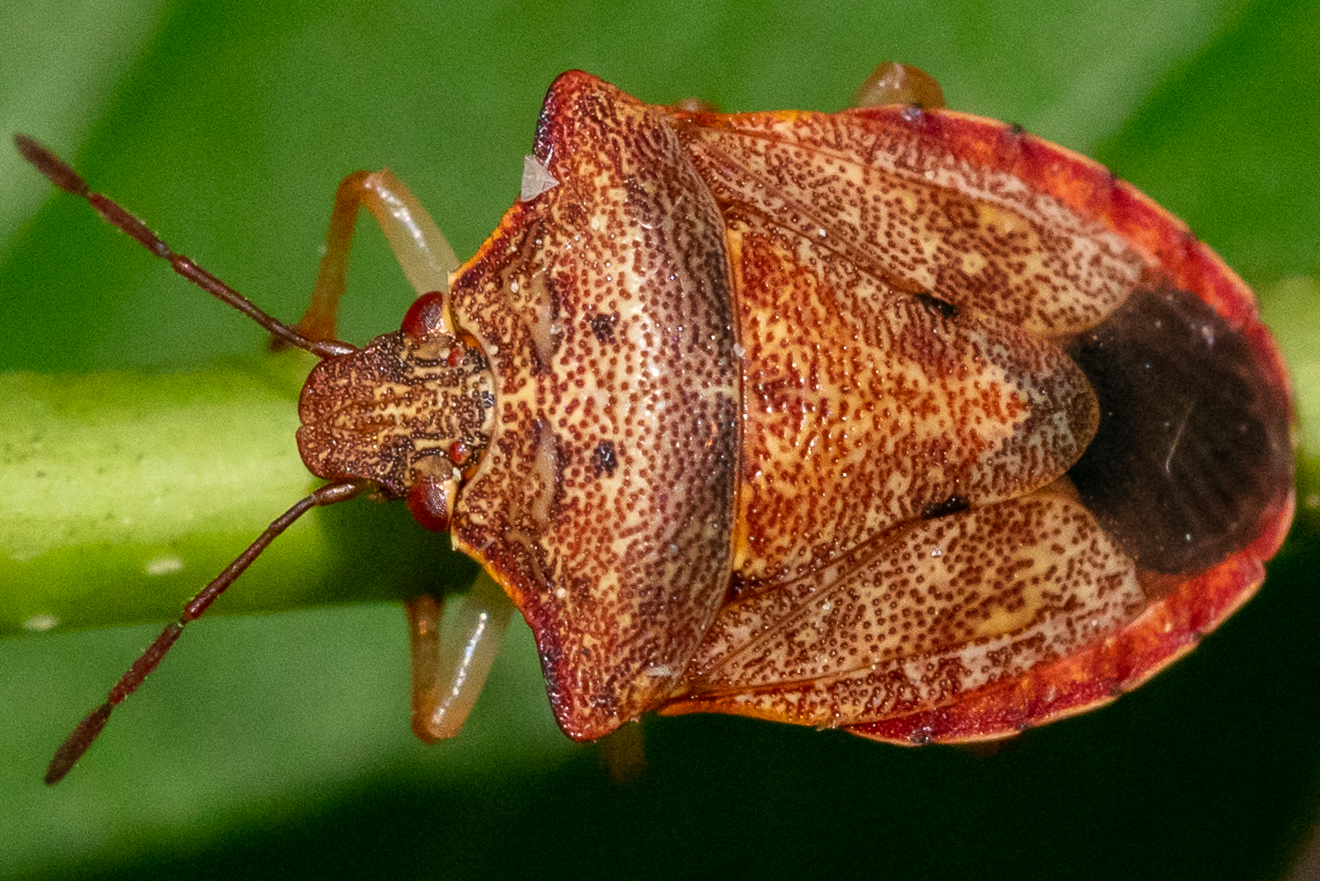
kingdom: Animalia
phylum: Arthropoda
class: Insecta
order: Hemiptera
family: Pentatomidae
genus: Dendrocoris
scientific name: Dendrocoris humeralis
